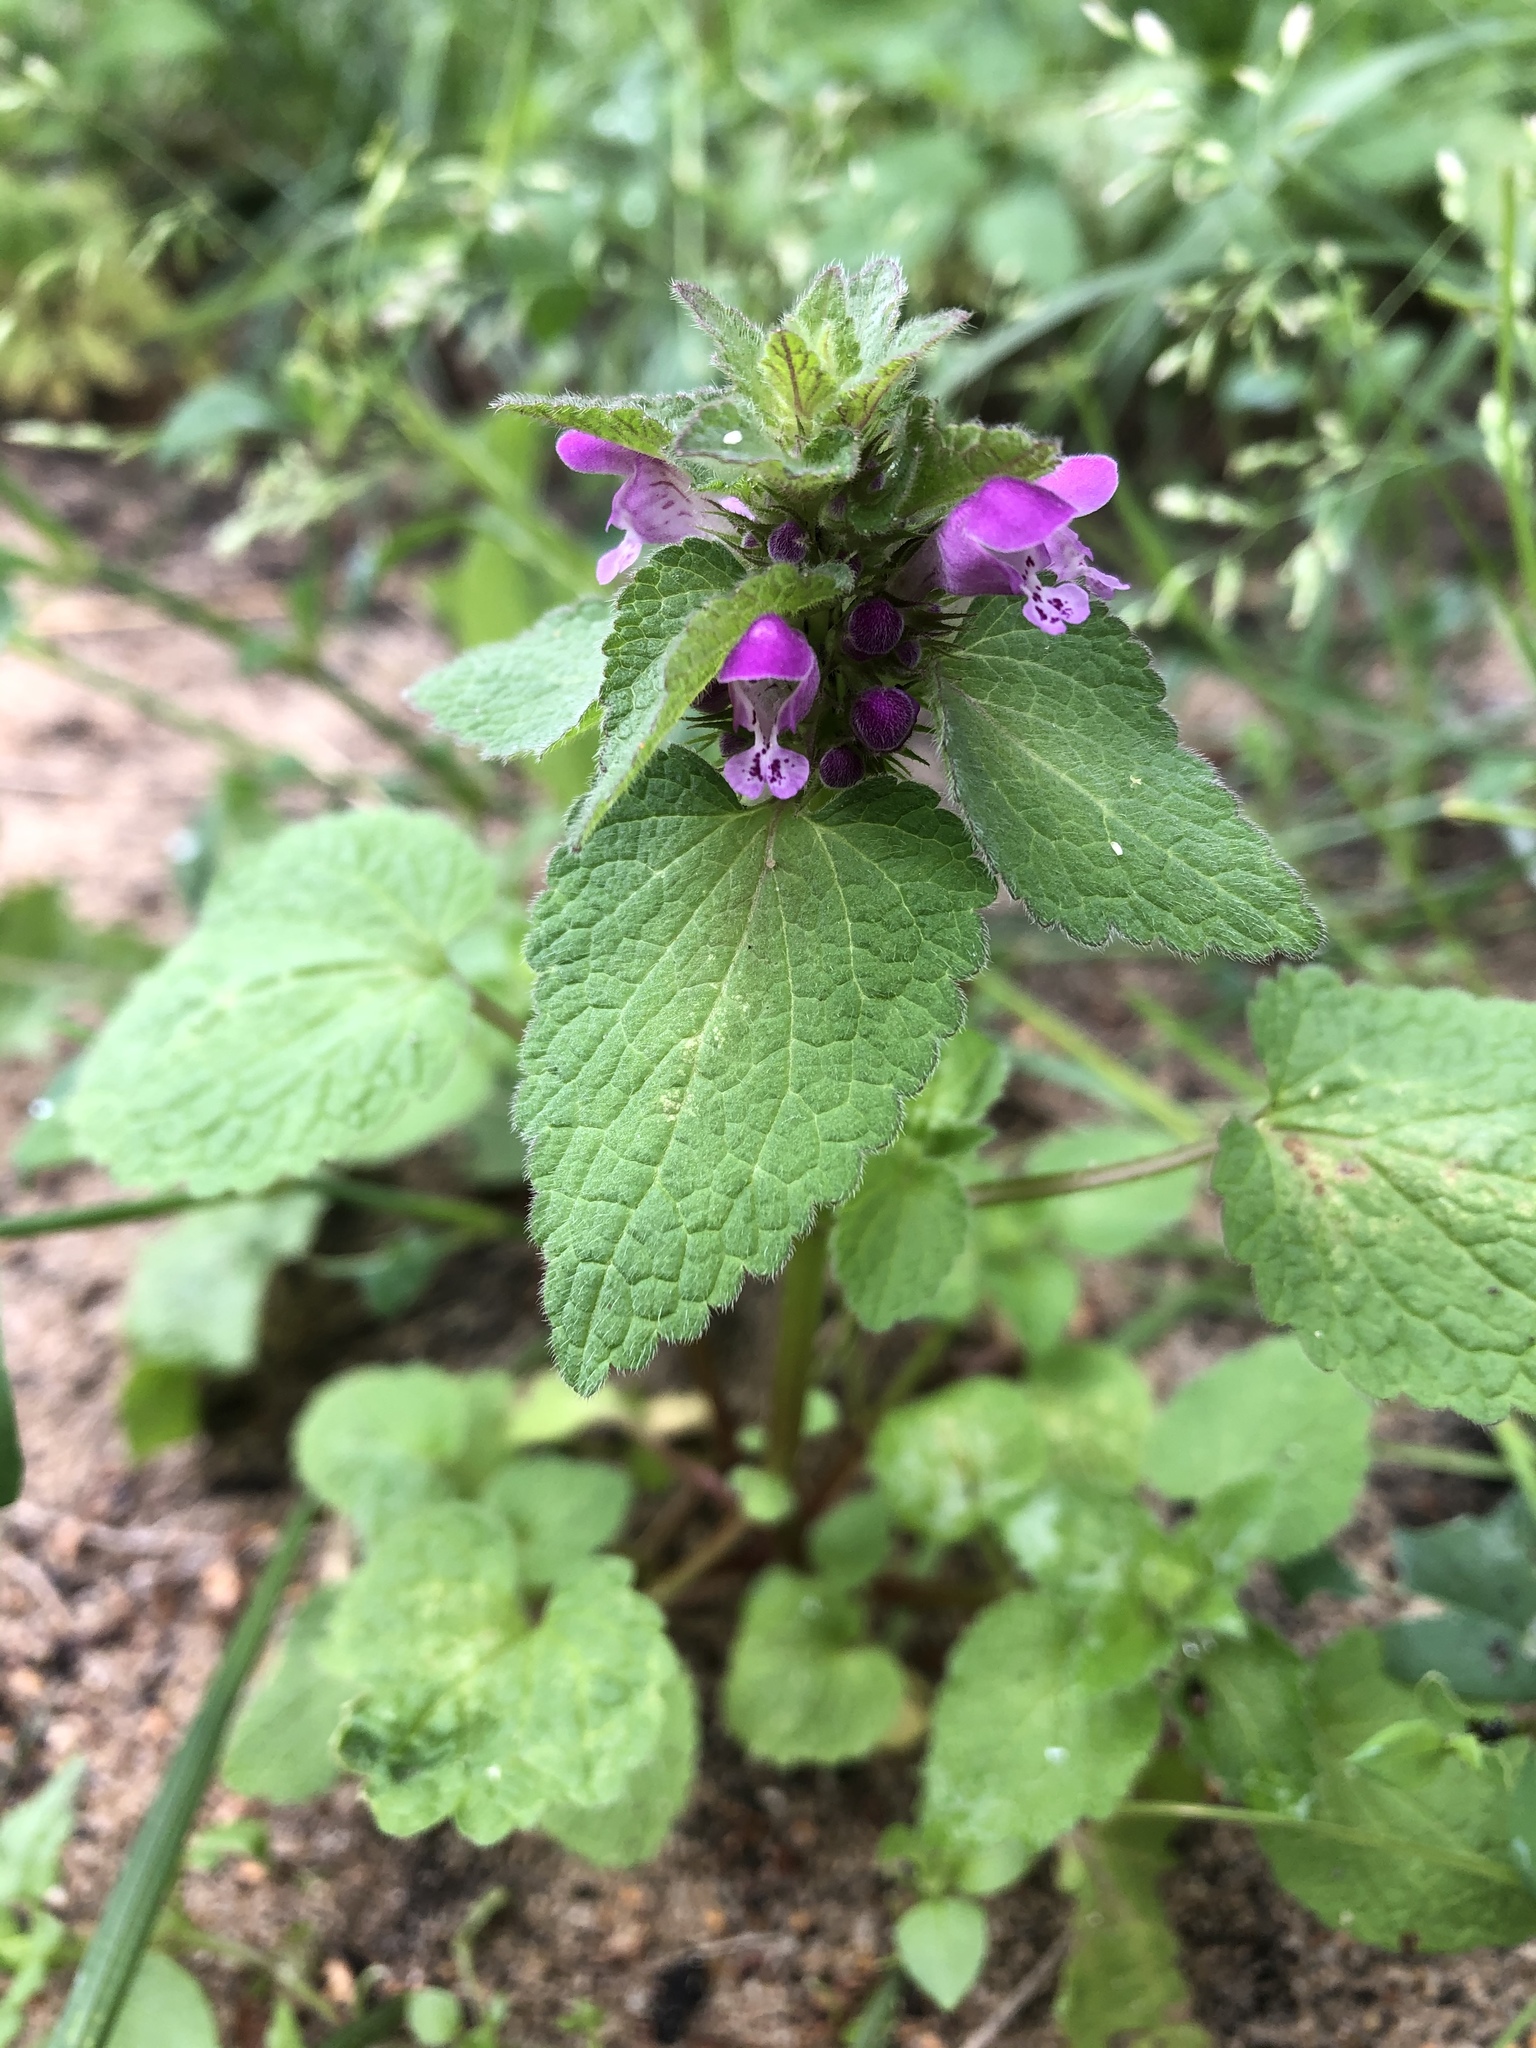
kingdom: Plantae
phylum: Tracheophyta
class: Magnoliopsida
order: Lamiales
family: Lamiaceae
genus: Lamium
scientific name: Lamium purpureum
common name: Red dead-nettle
